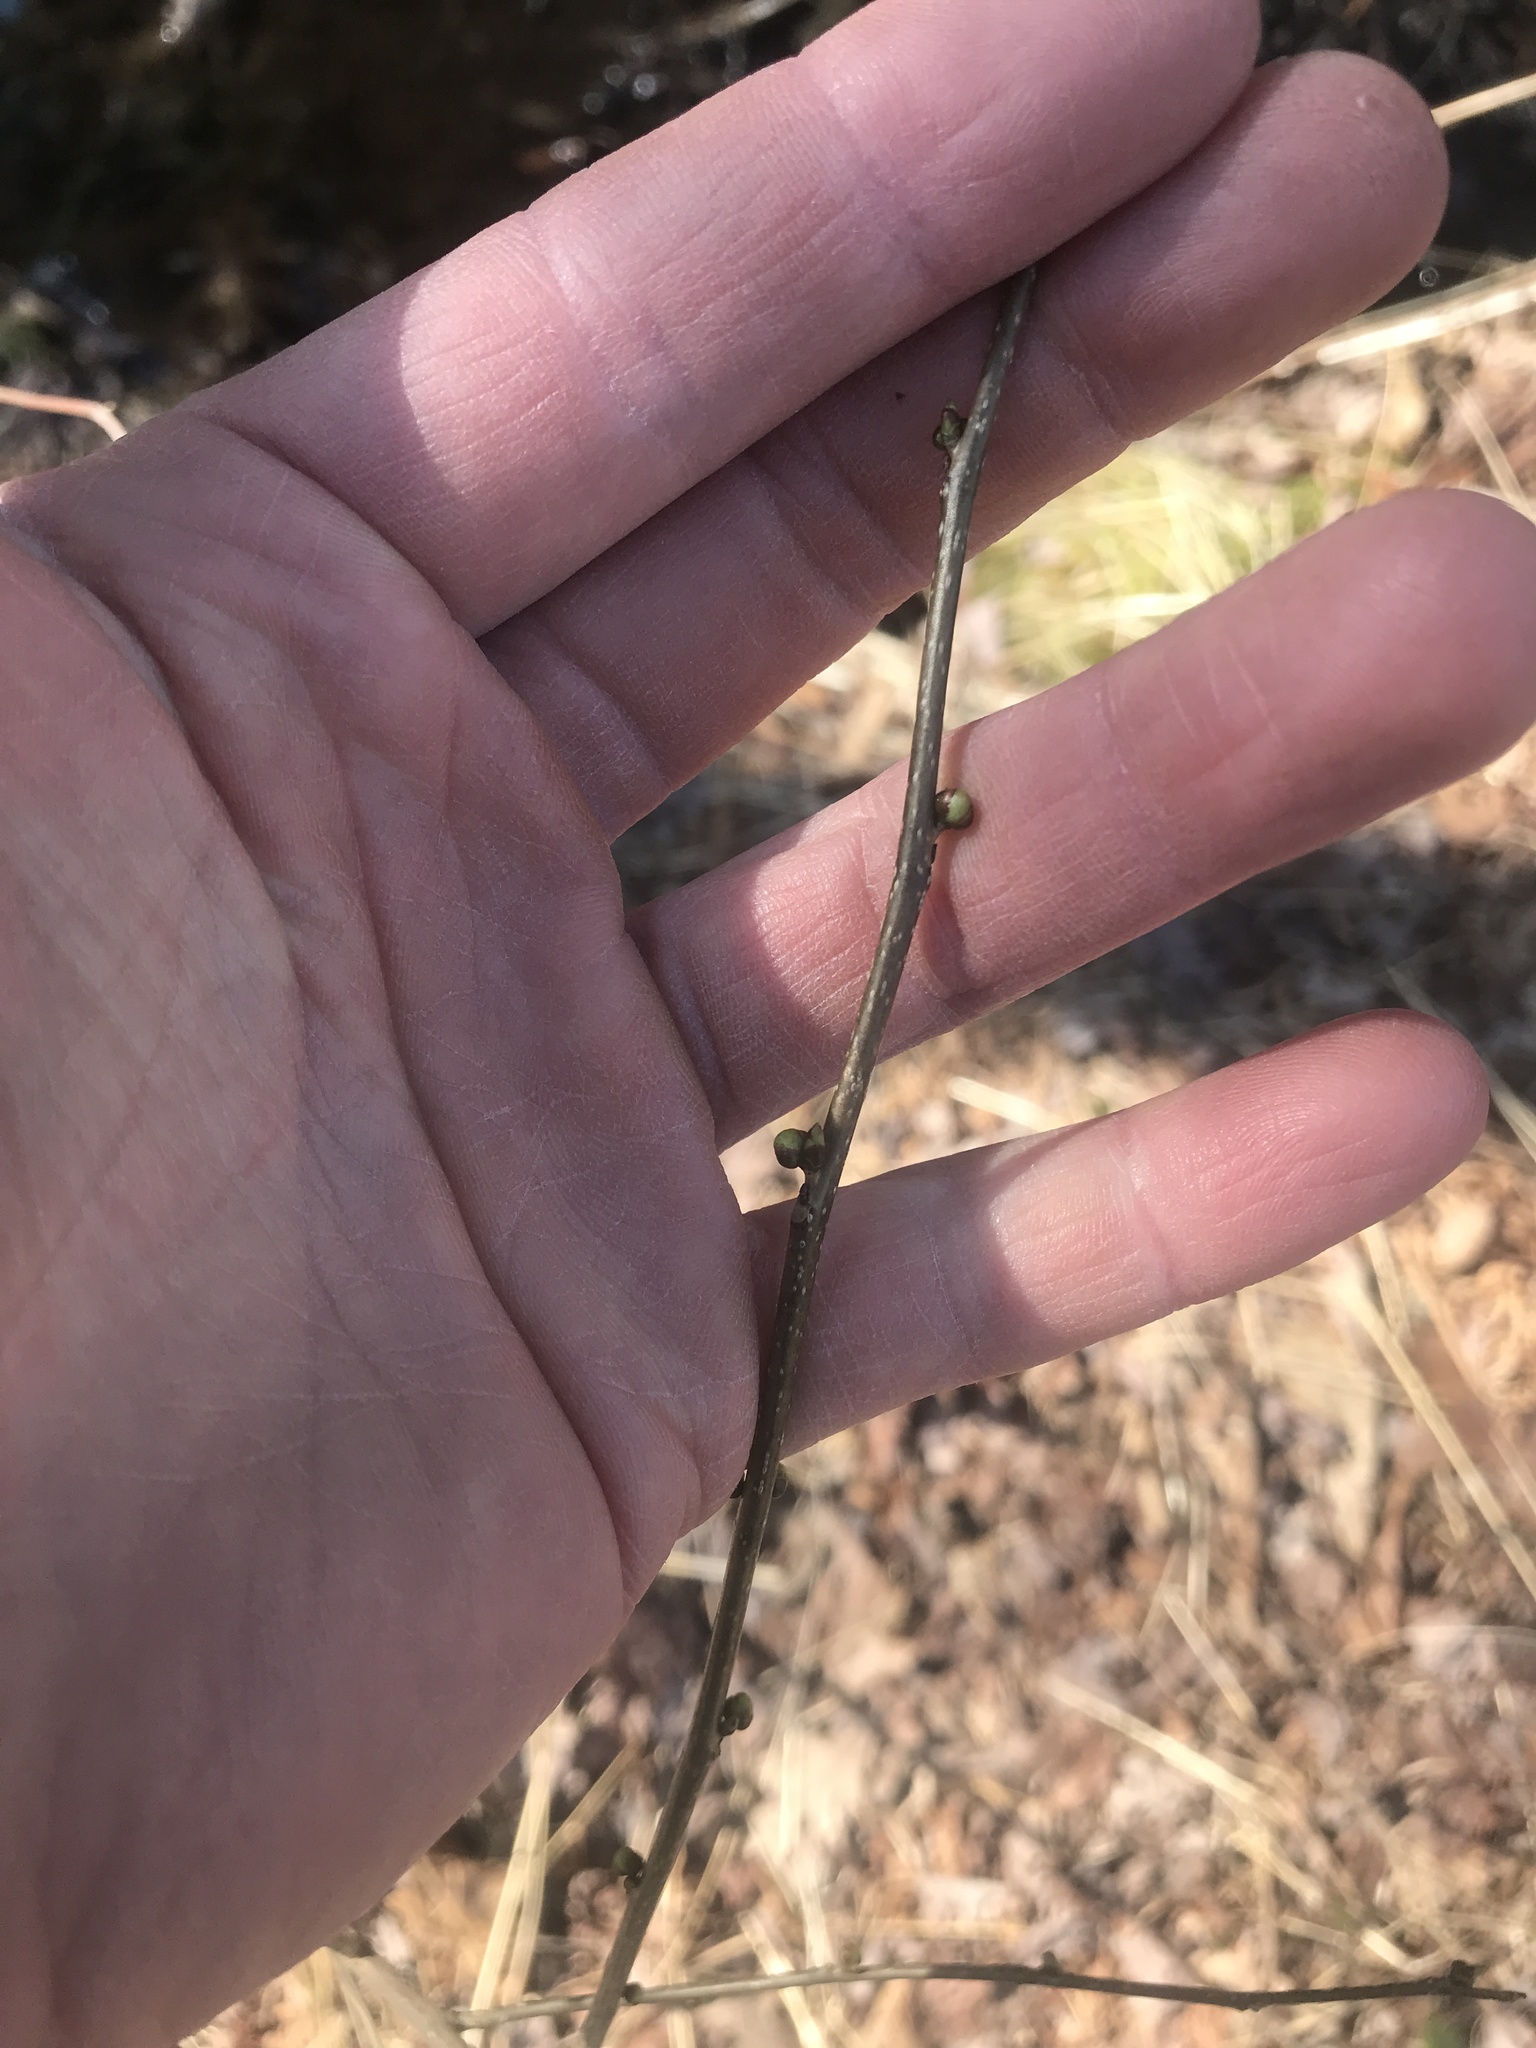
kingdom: Plantae
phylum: Tracheophyta
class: Magnoliopsida
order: Laurales
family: Lauraceae
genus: Lindera
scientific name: Lindera benzoin
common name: Spicebush
